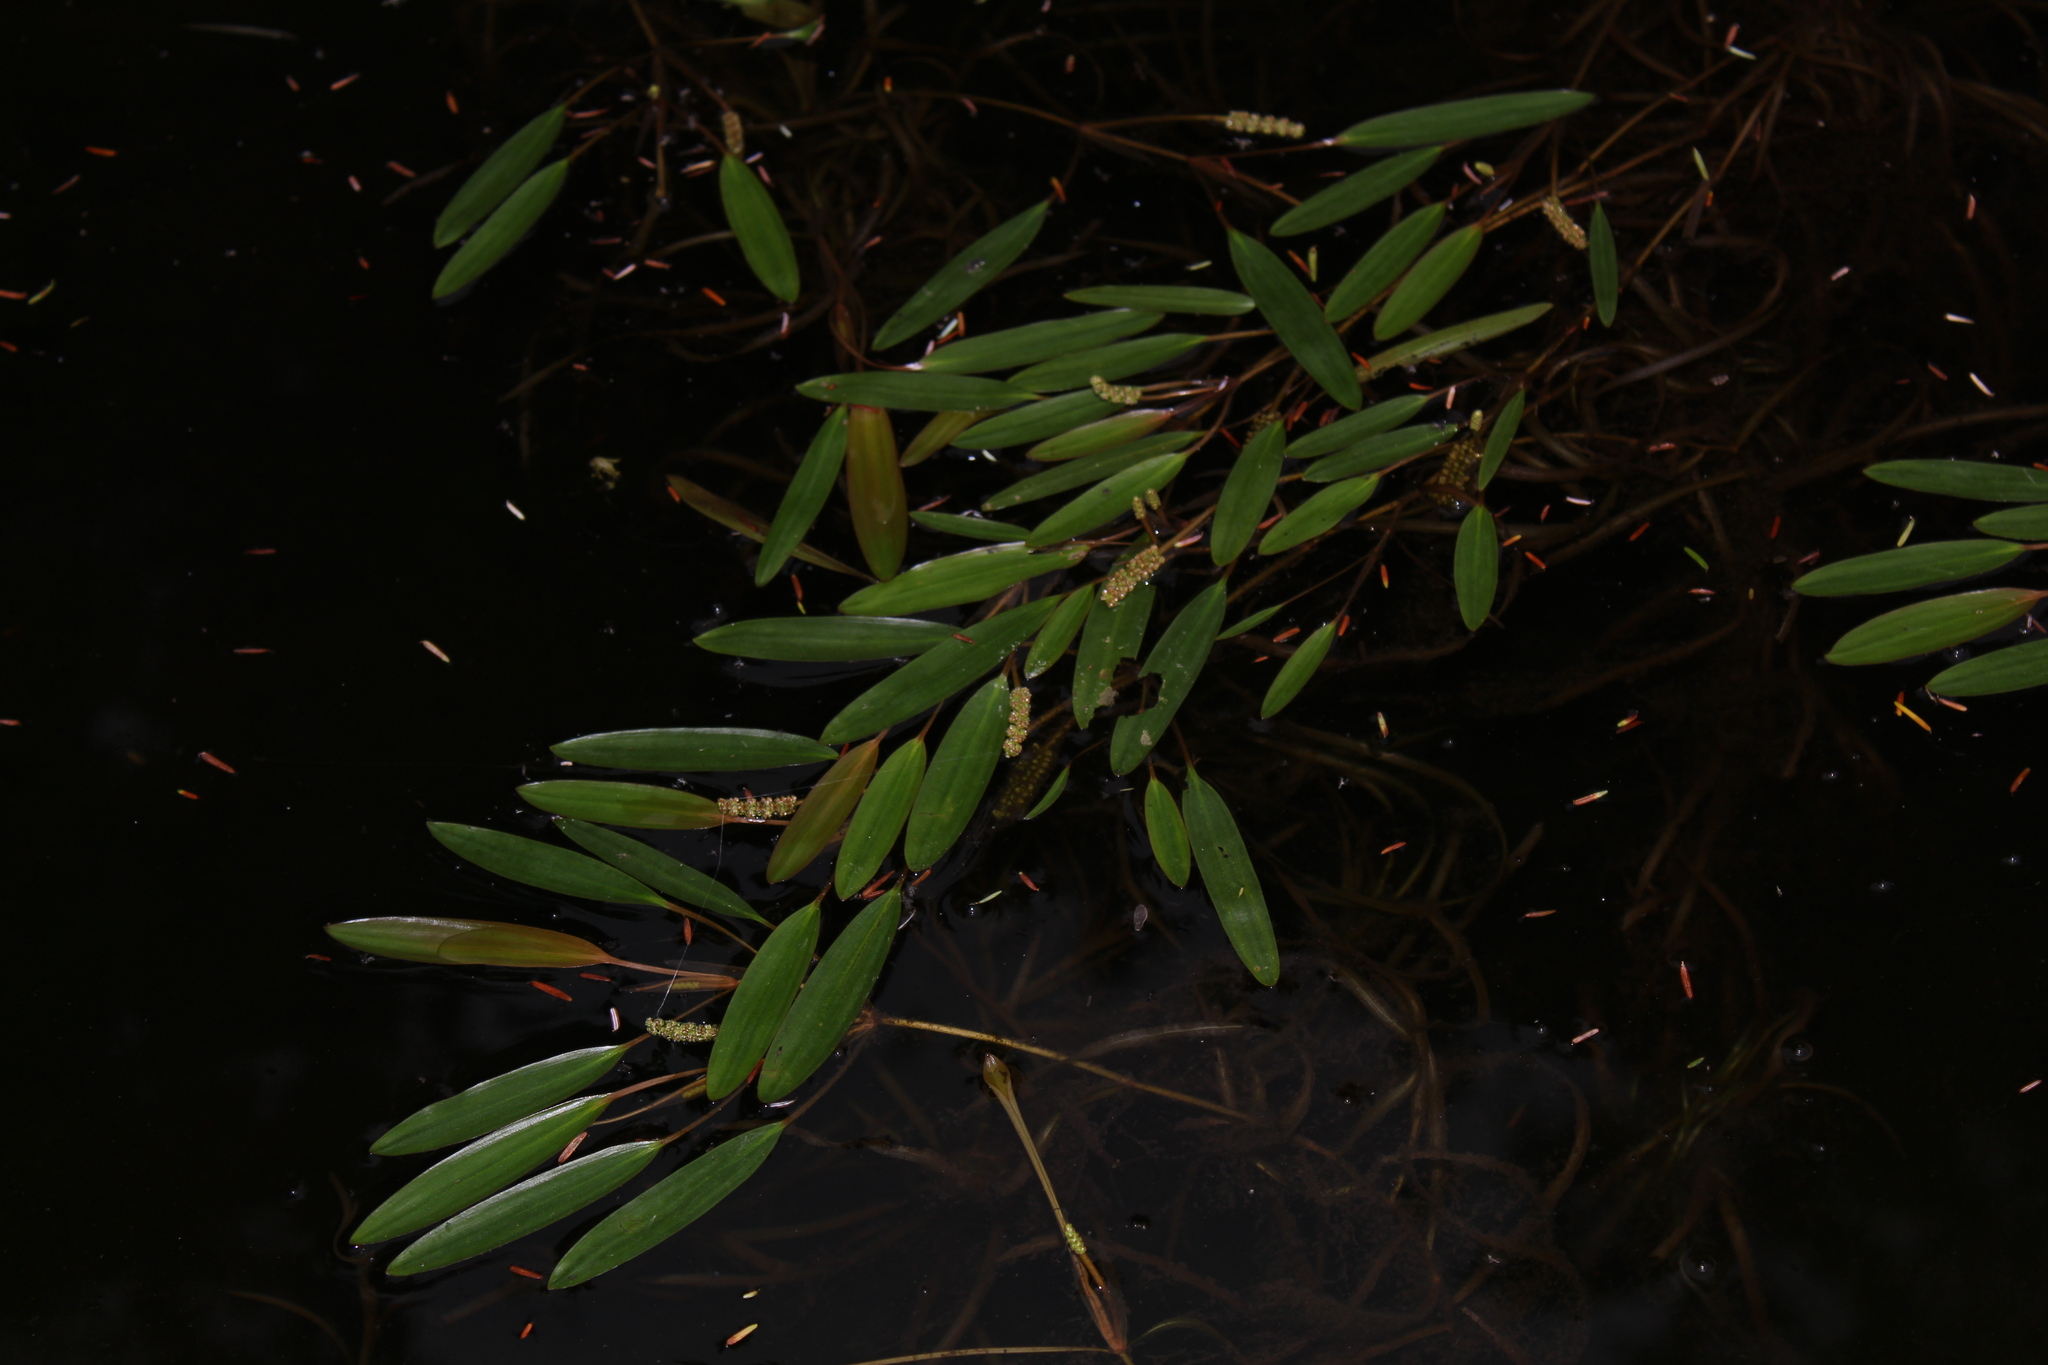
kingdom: Plantae
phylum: Tracheophyta
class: Liliopsida
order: Alismatales
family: Potamogetonaceae
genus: Potamogeton
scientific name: Potamogeton epihydrus
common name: American pondweed
